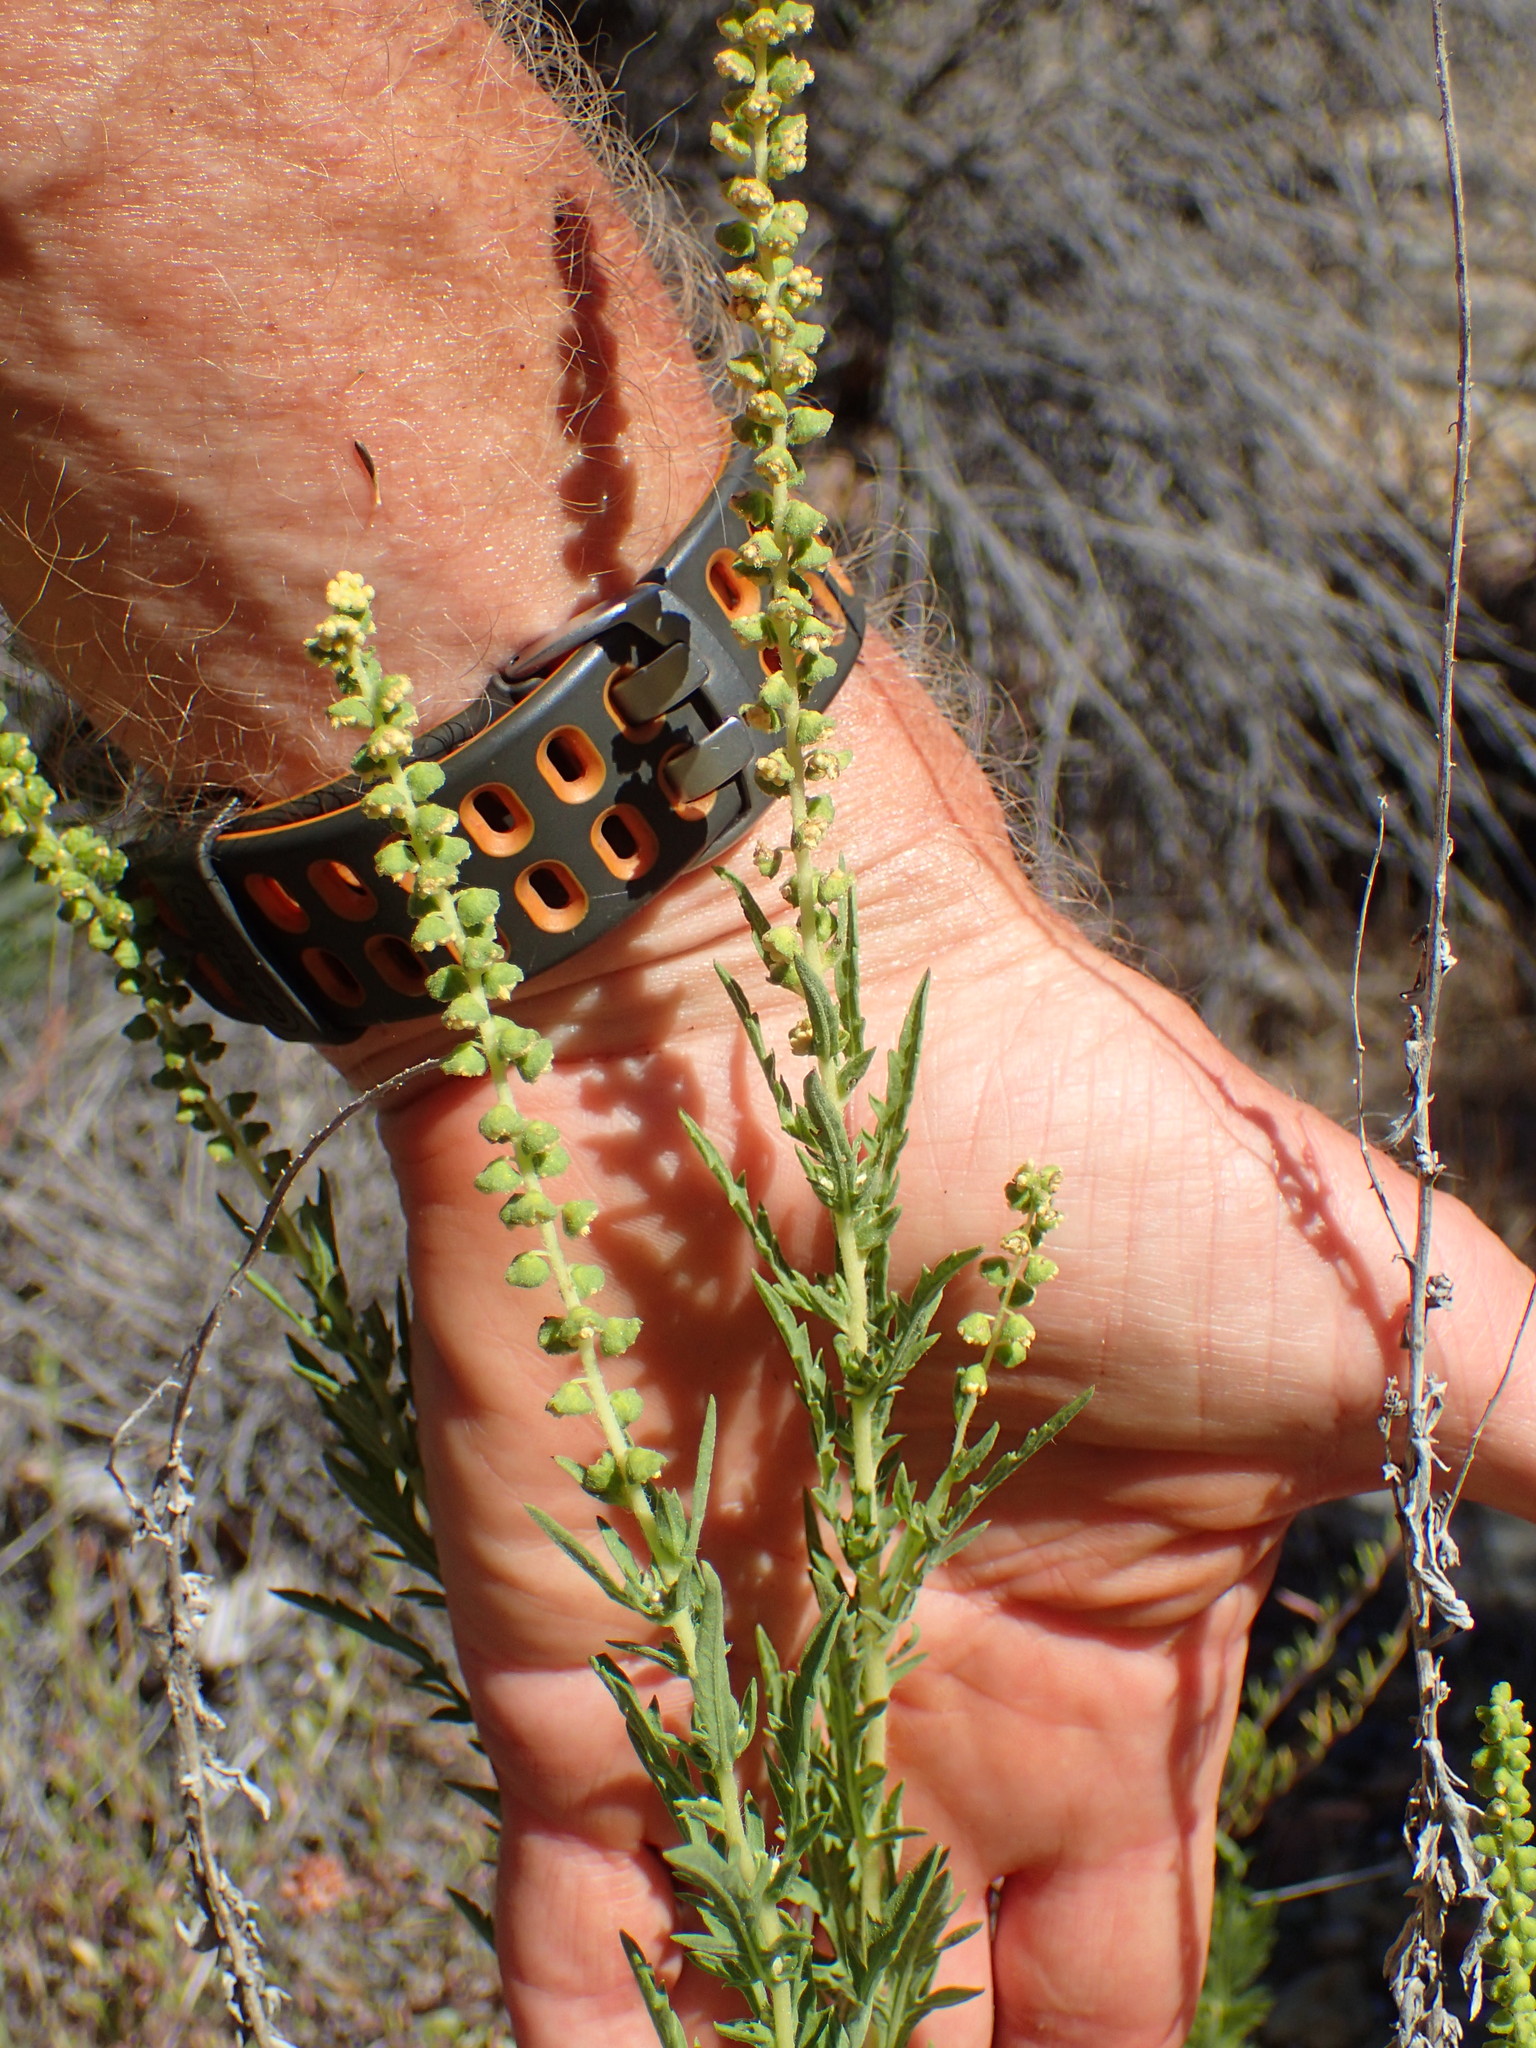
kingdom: Plantae
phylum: Tracheophyta
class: Magnoliopsida
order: Asterales
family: Asteraceae
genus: Ambrosia
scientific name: Ambrosia psilostachya
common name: Perennial ragweed
